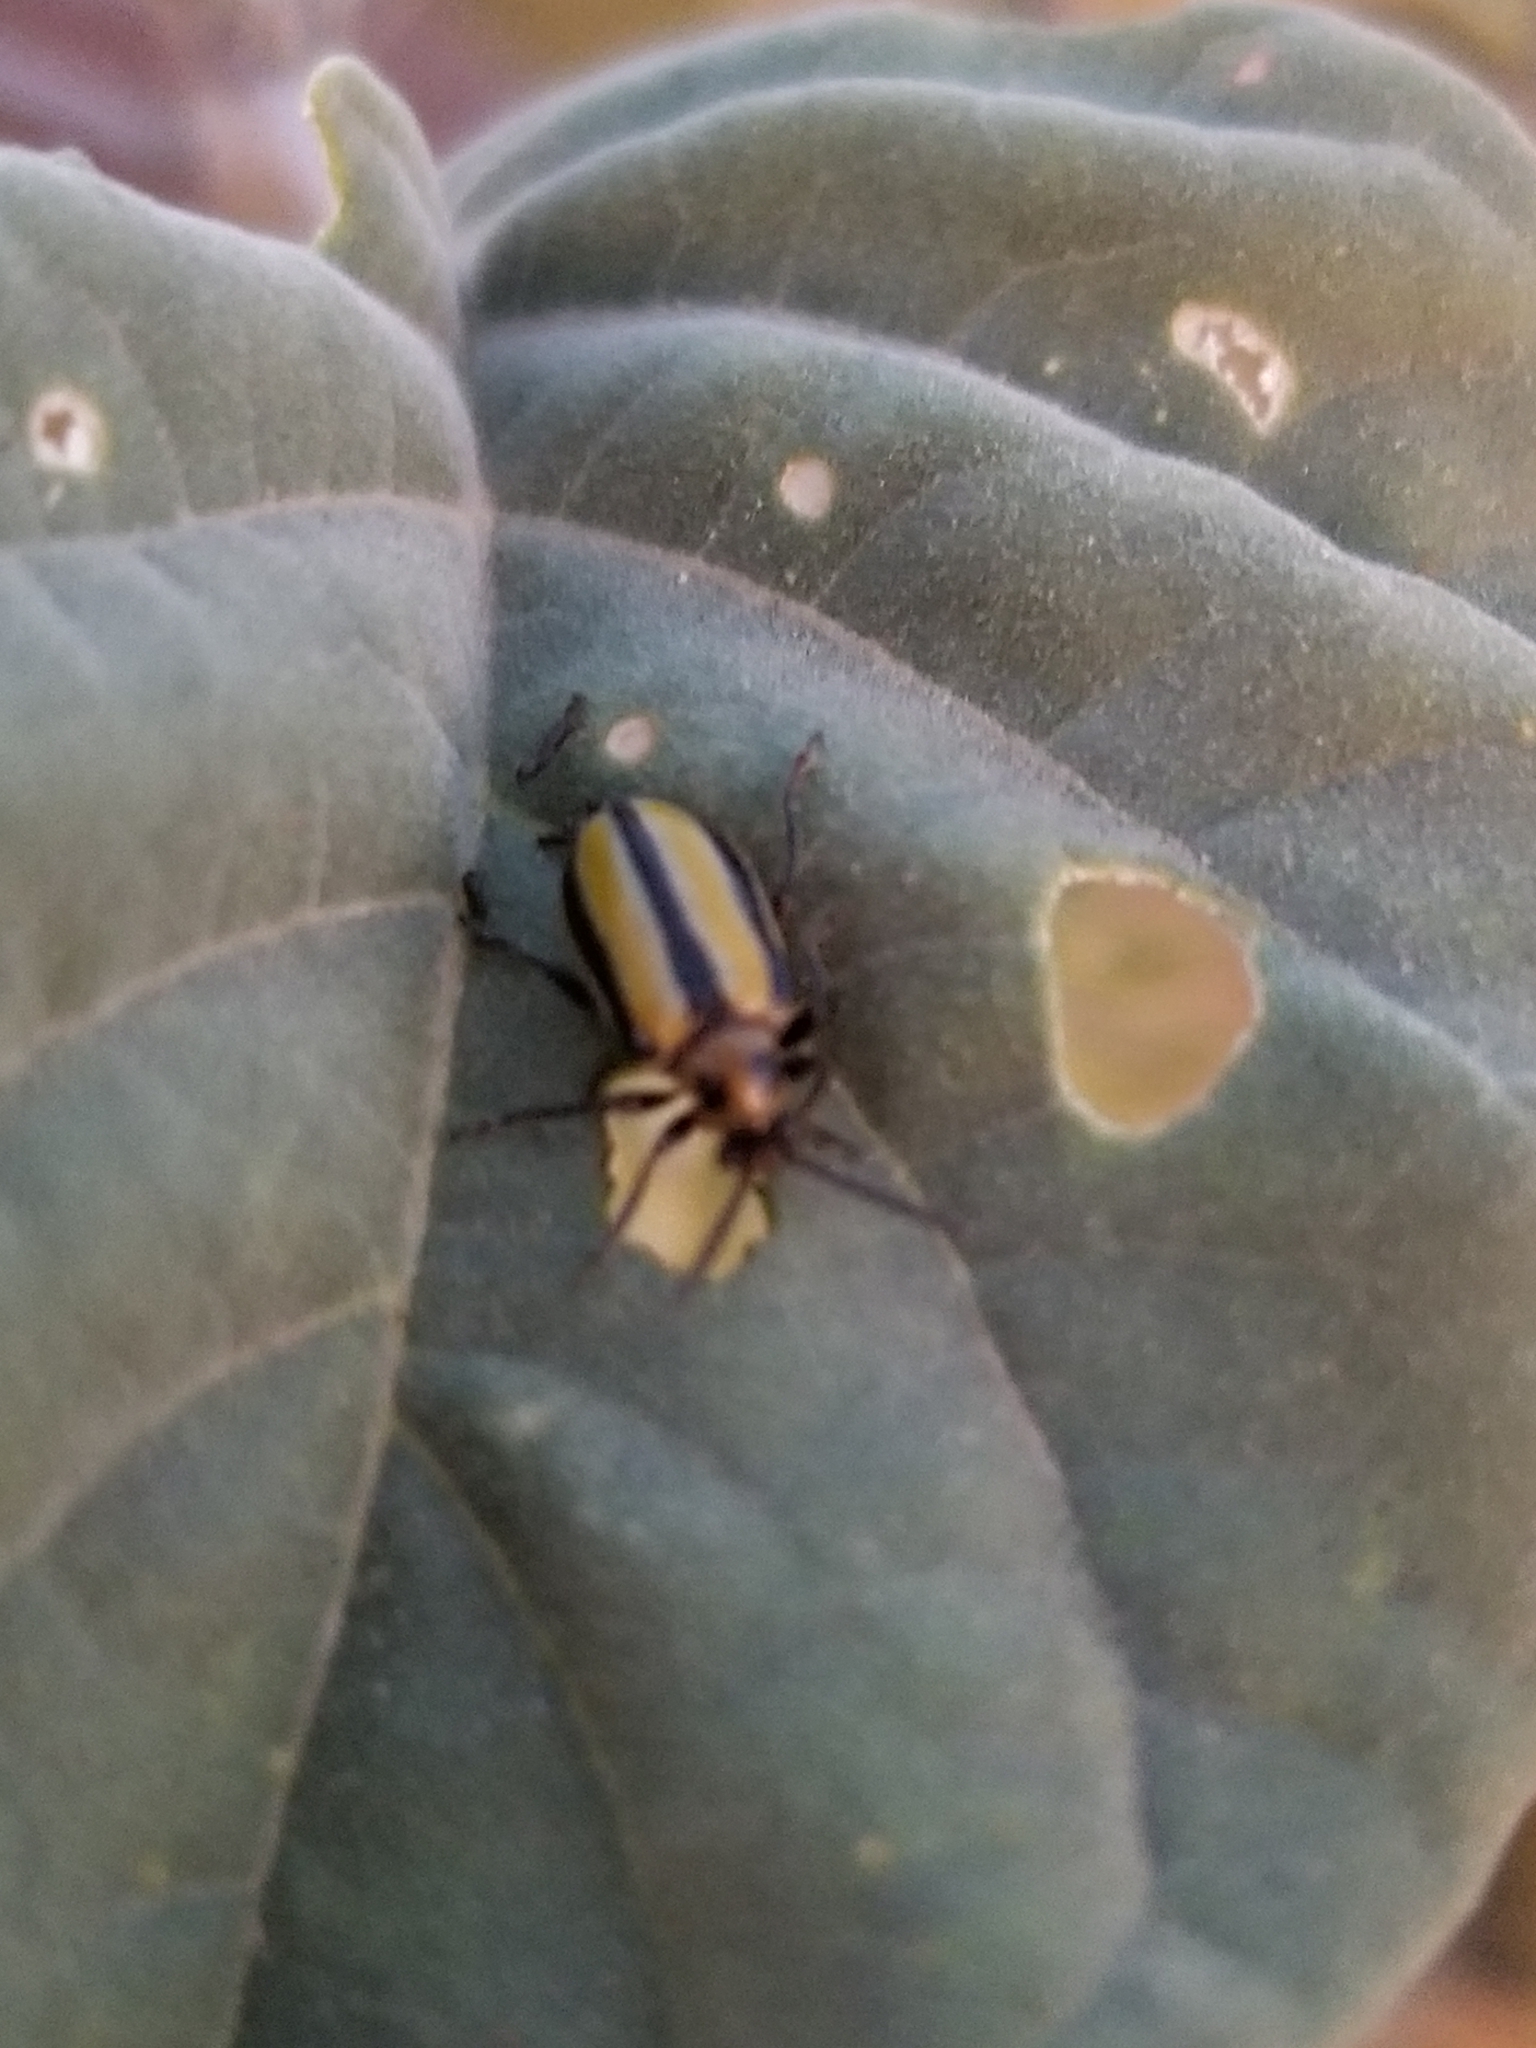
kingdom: Animalia
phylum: Arthropoda
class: Insecta
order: Coleoptera
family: Chrysomelidae
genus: Lema
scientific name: Lema daturaphila
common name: Leaf beetle
